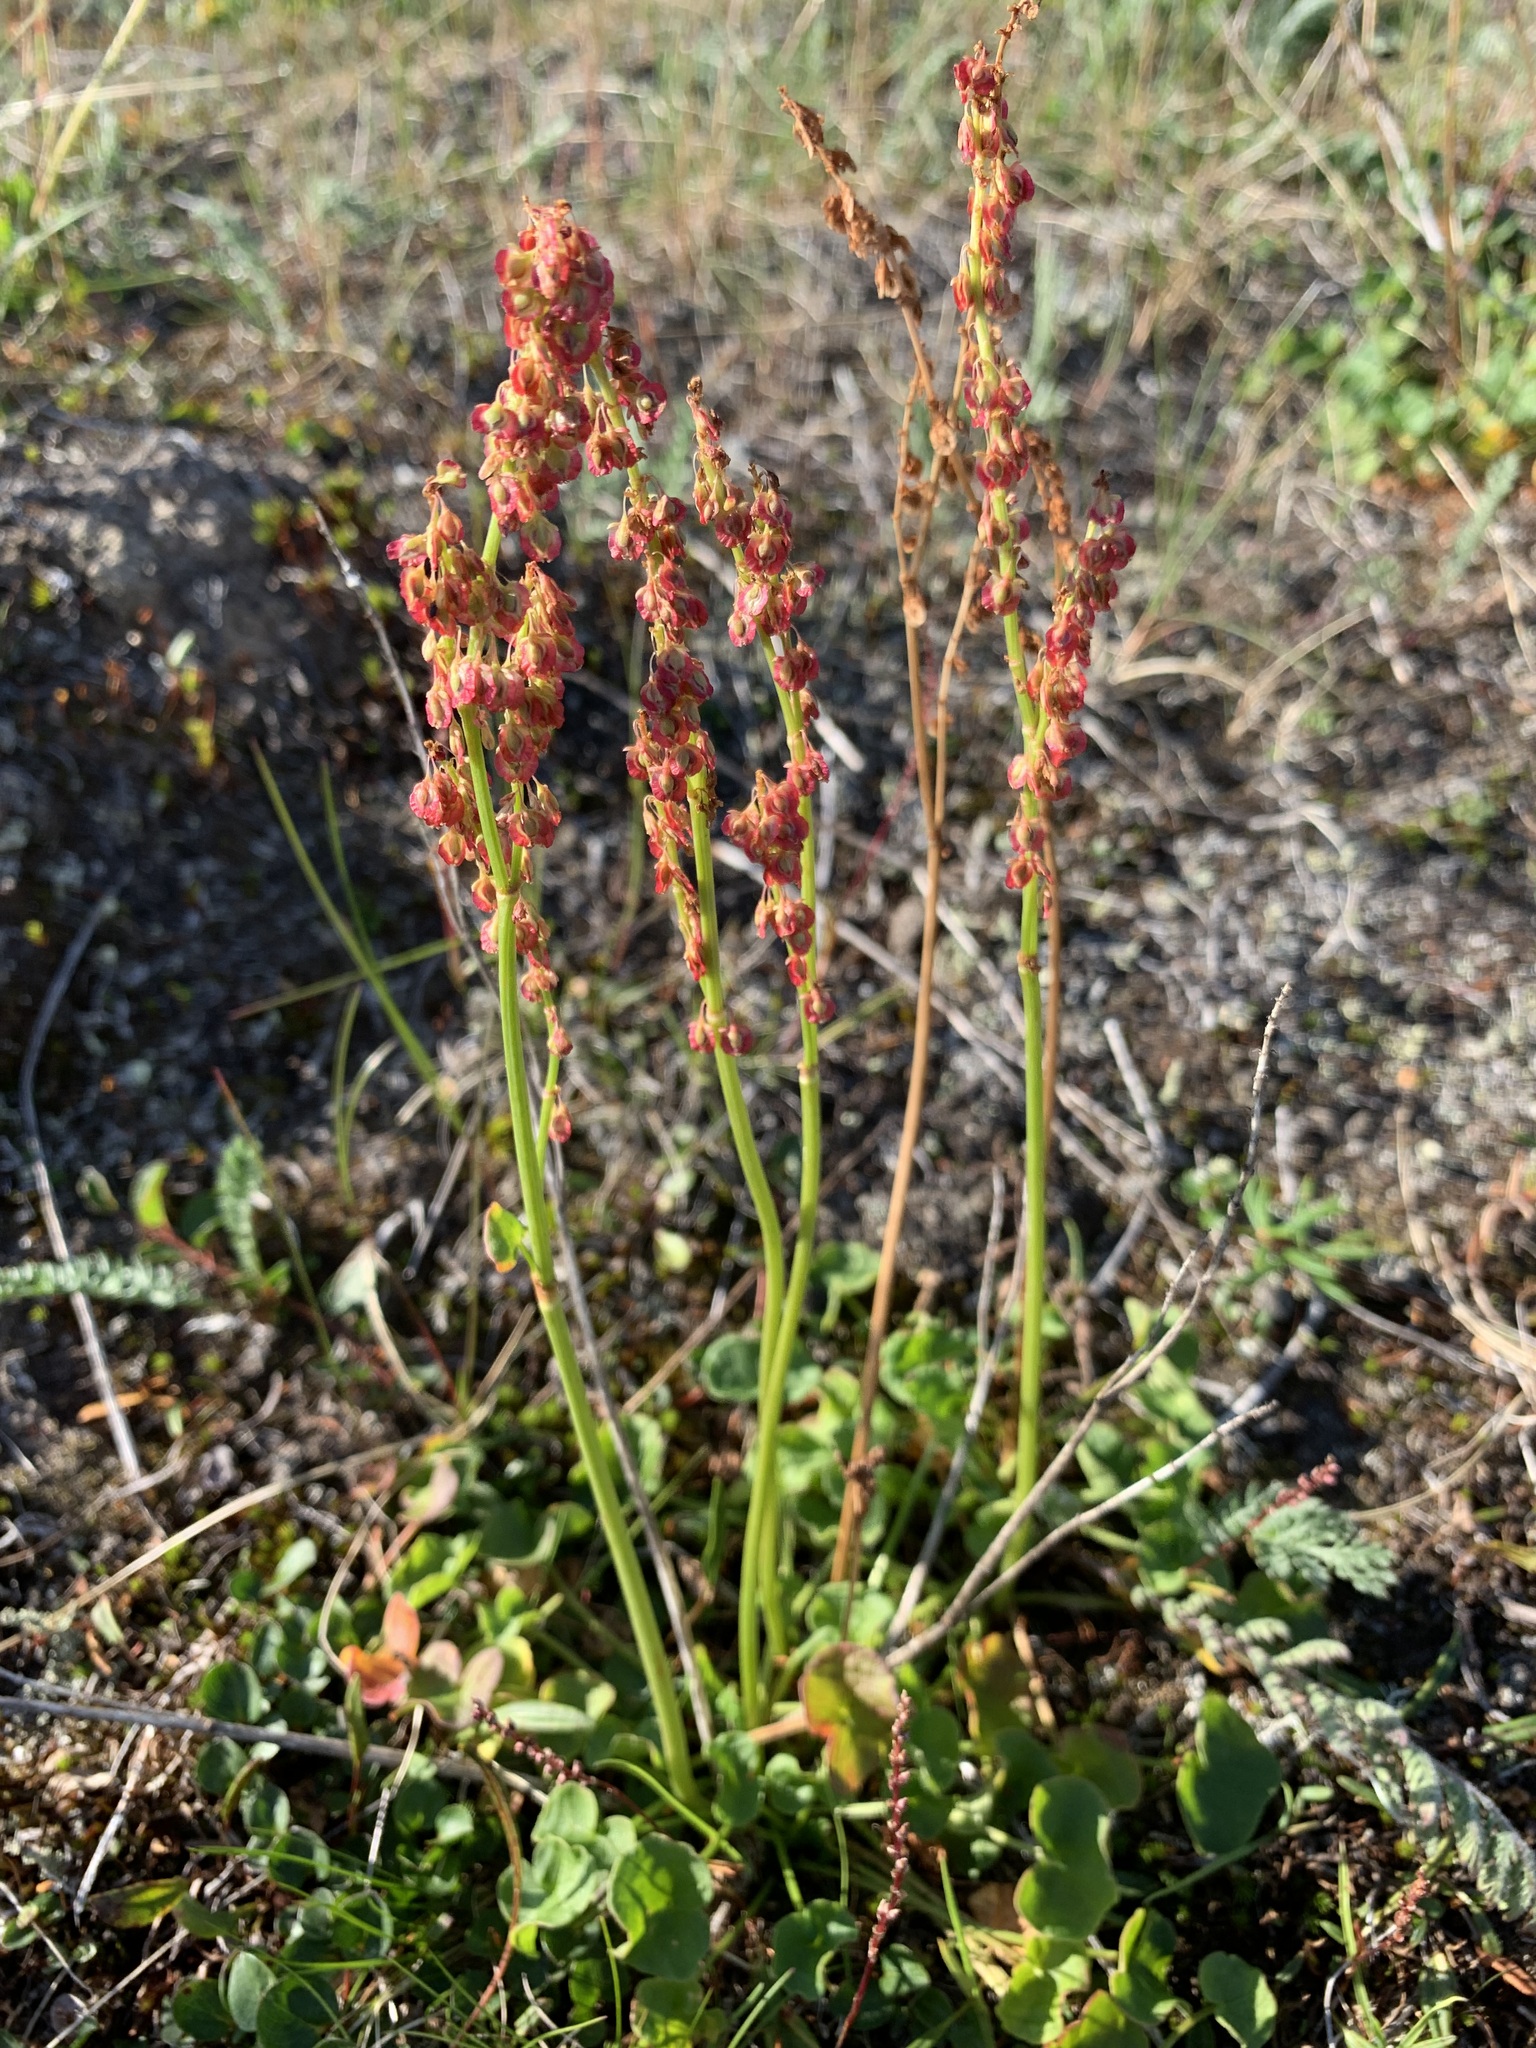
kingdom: Plantae
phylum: Tracheophyta
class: Magnoliopsida
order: Caryophyllales
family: Polygonaceae
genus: Oxyria
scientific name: Oxyria digyna
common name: Alpine mountain-sorrel
